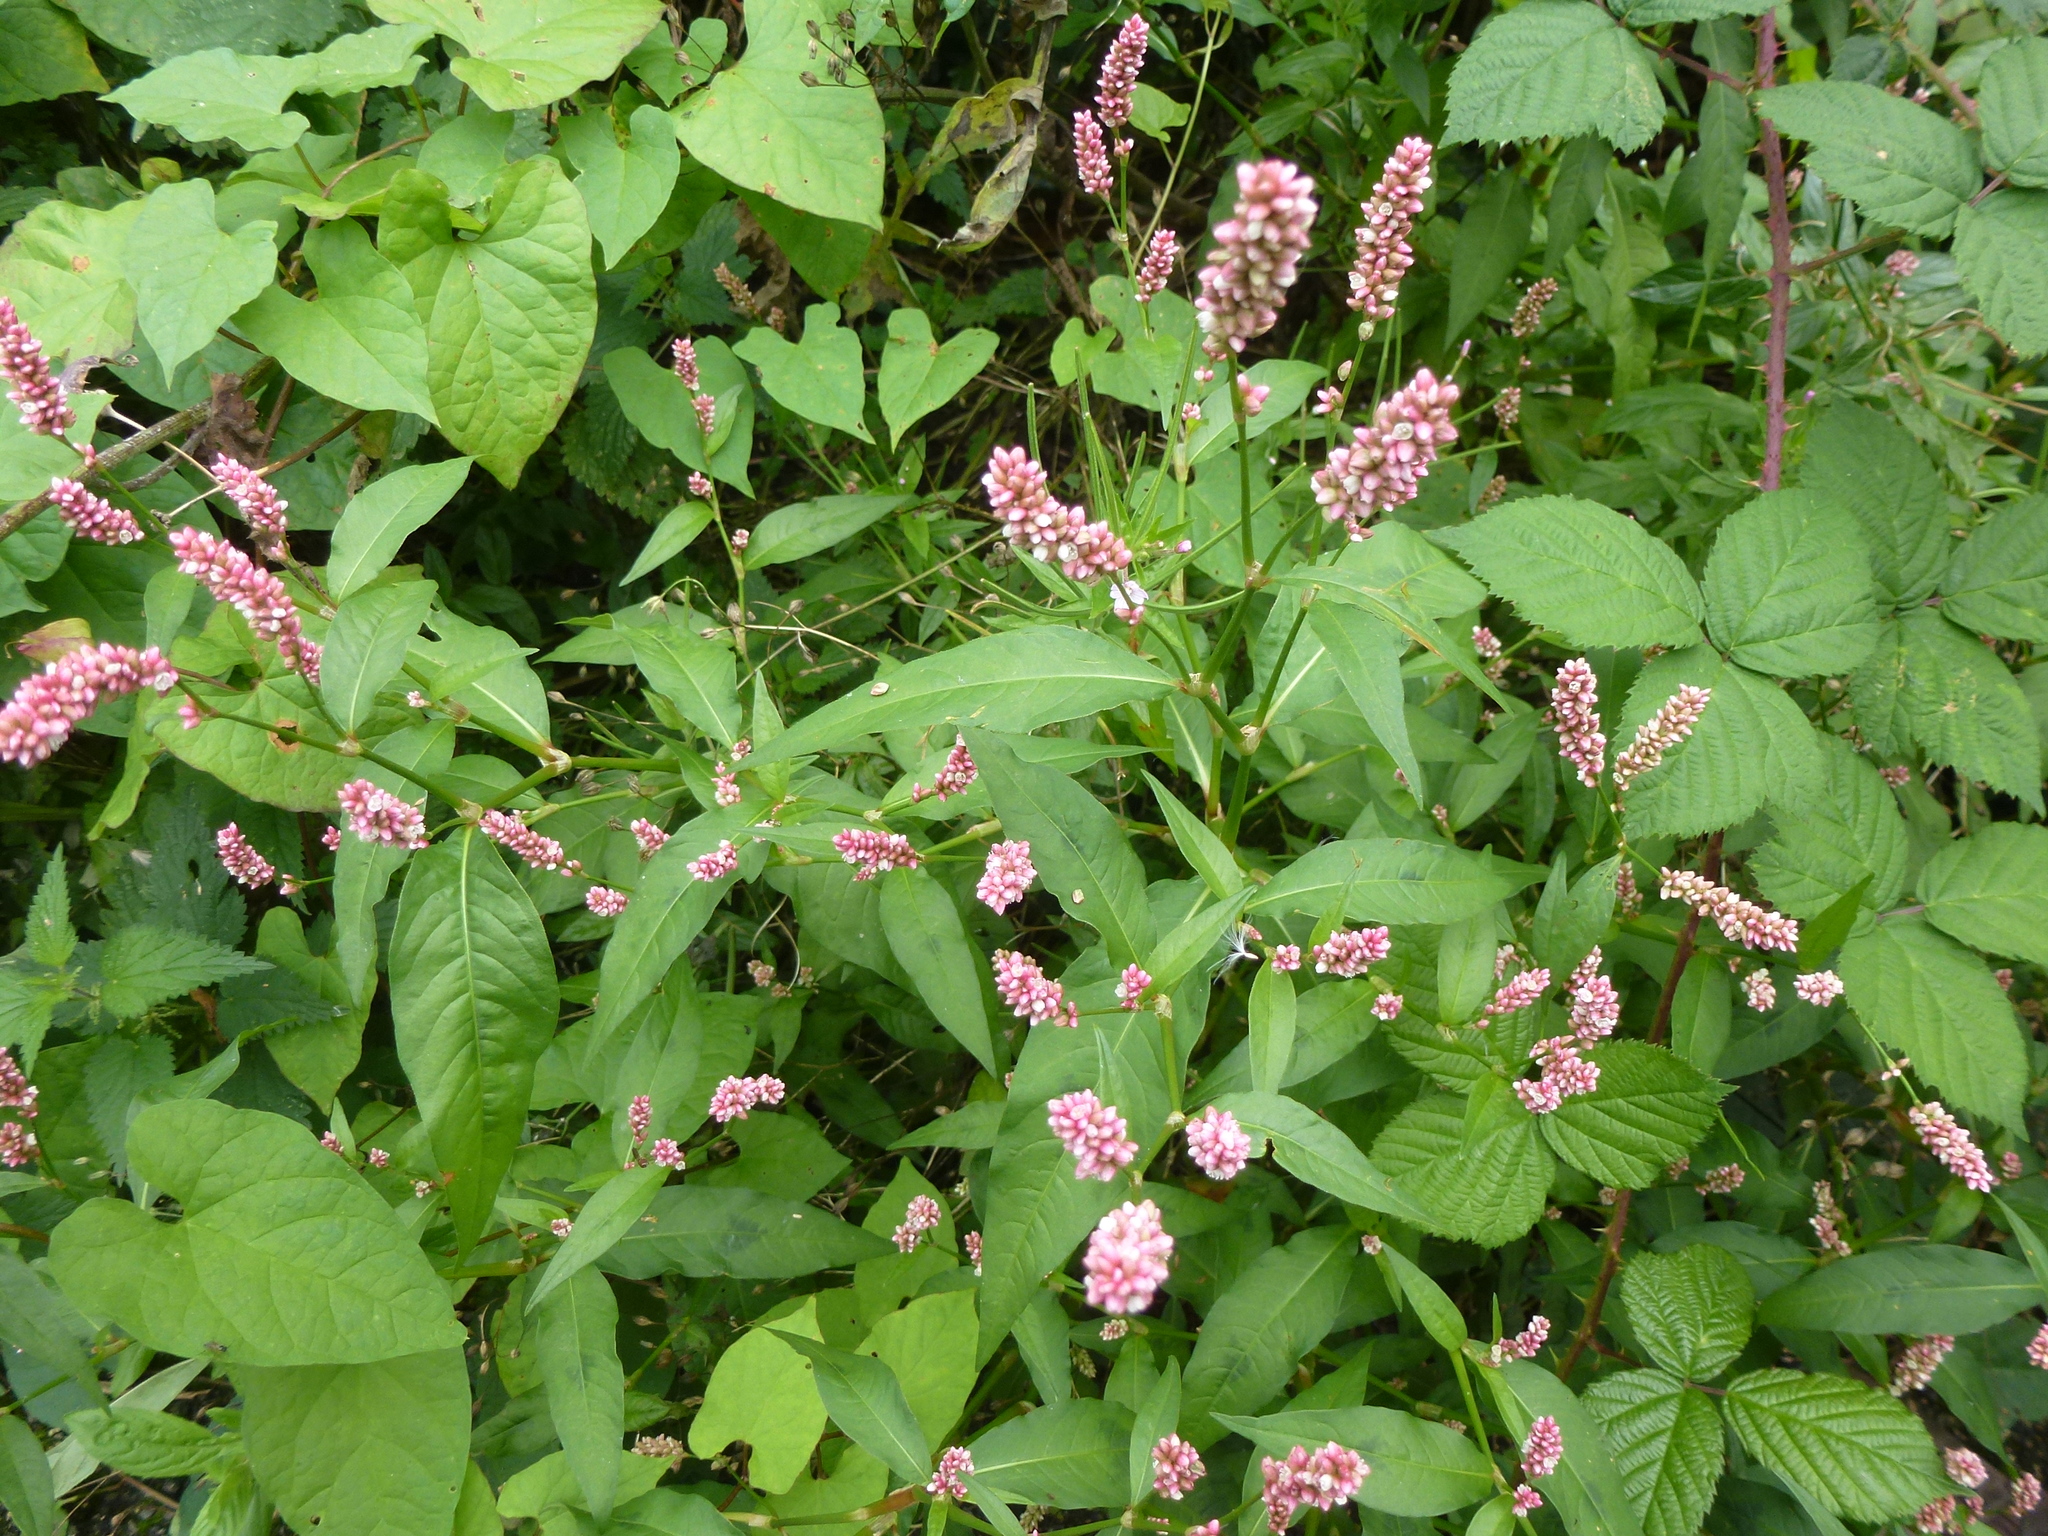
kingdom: Plantae
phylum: Tracheophyta
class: Magnoliopsida
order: Caryophyllales
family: Polygonaceae
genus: Persicaria
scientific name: Persicaria maculosa
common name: Redshank
